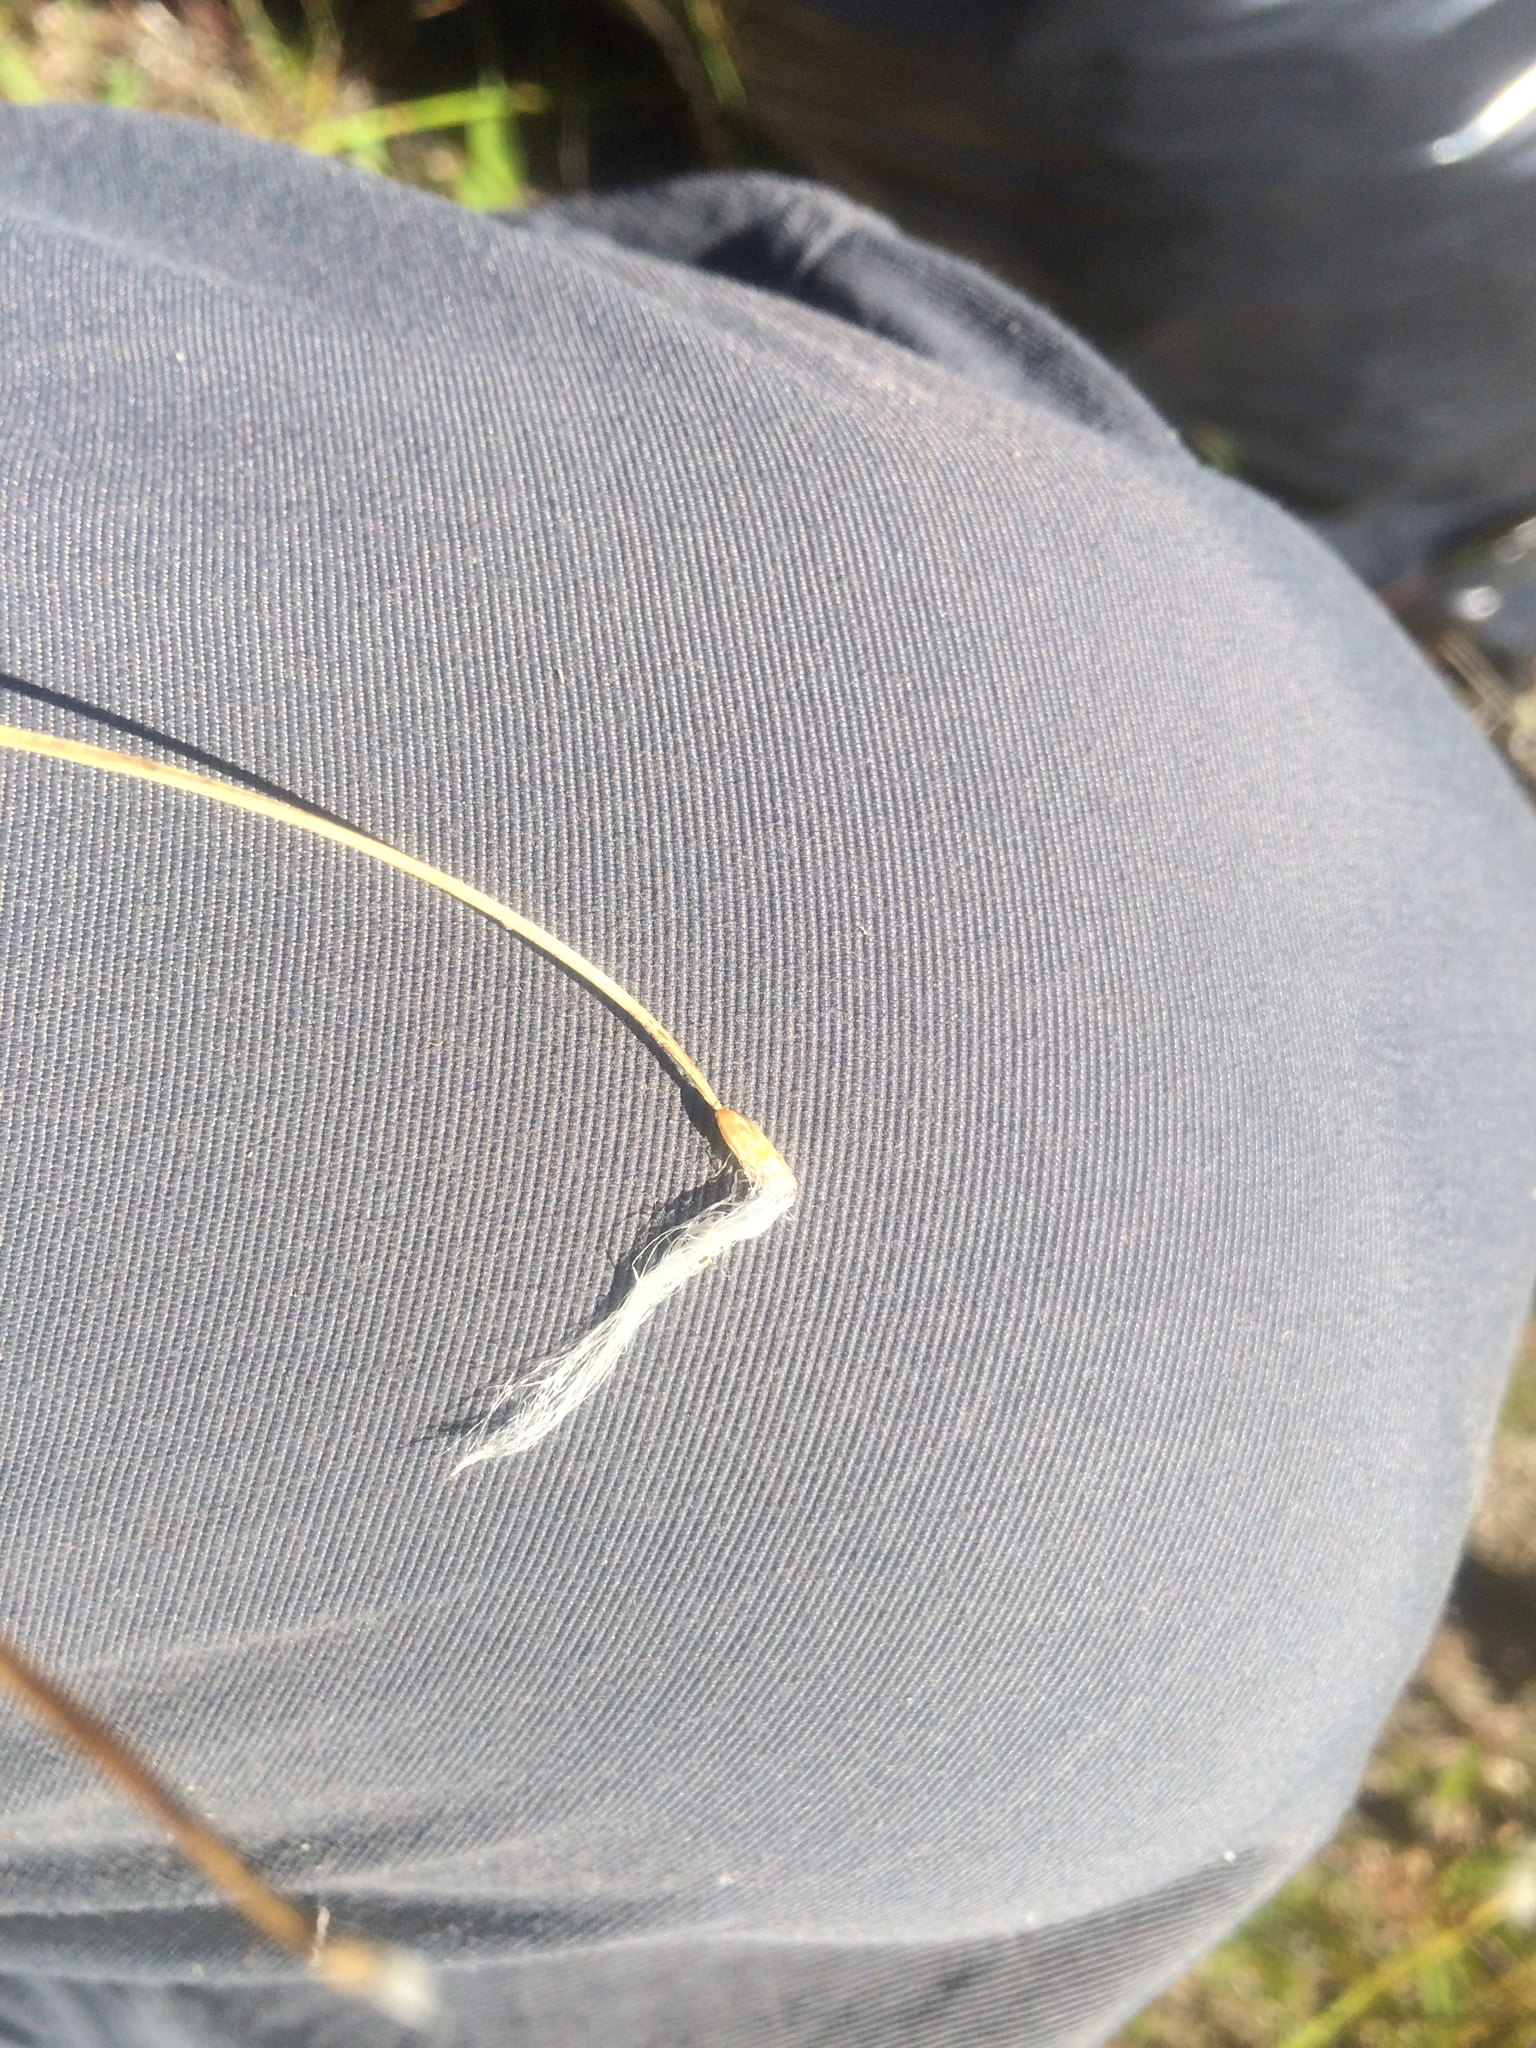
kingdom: Plantae
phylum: Tracheophyta
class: Liliopsida
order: Poales
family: Cyperaceae
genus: Trichophorum
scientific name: Trichophorum alpinum
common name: Alpine bulrush
